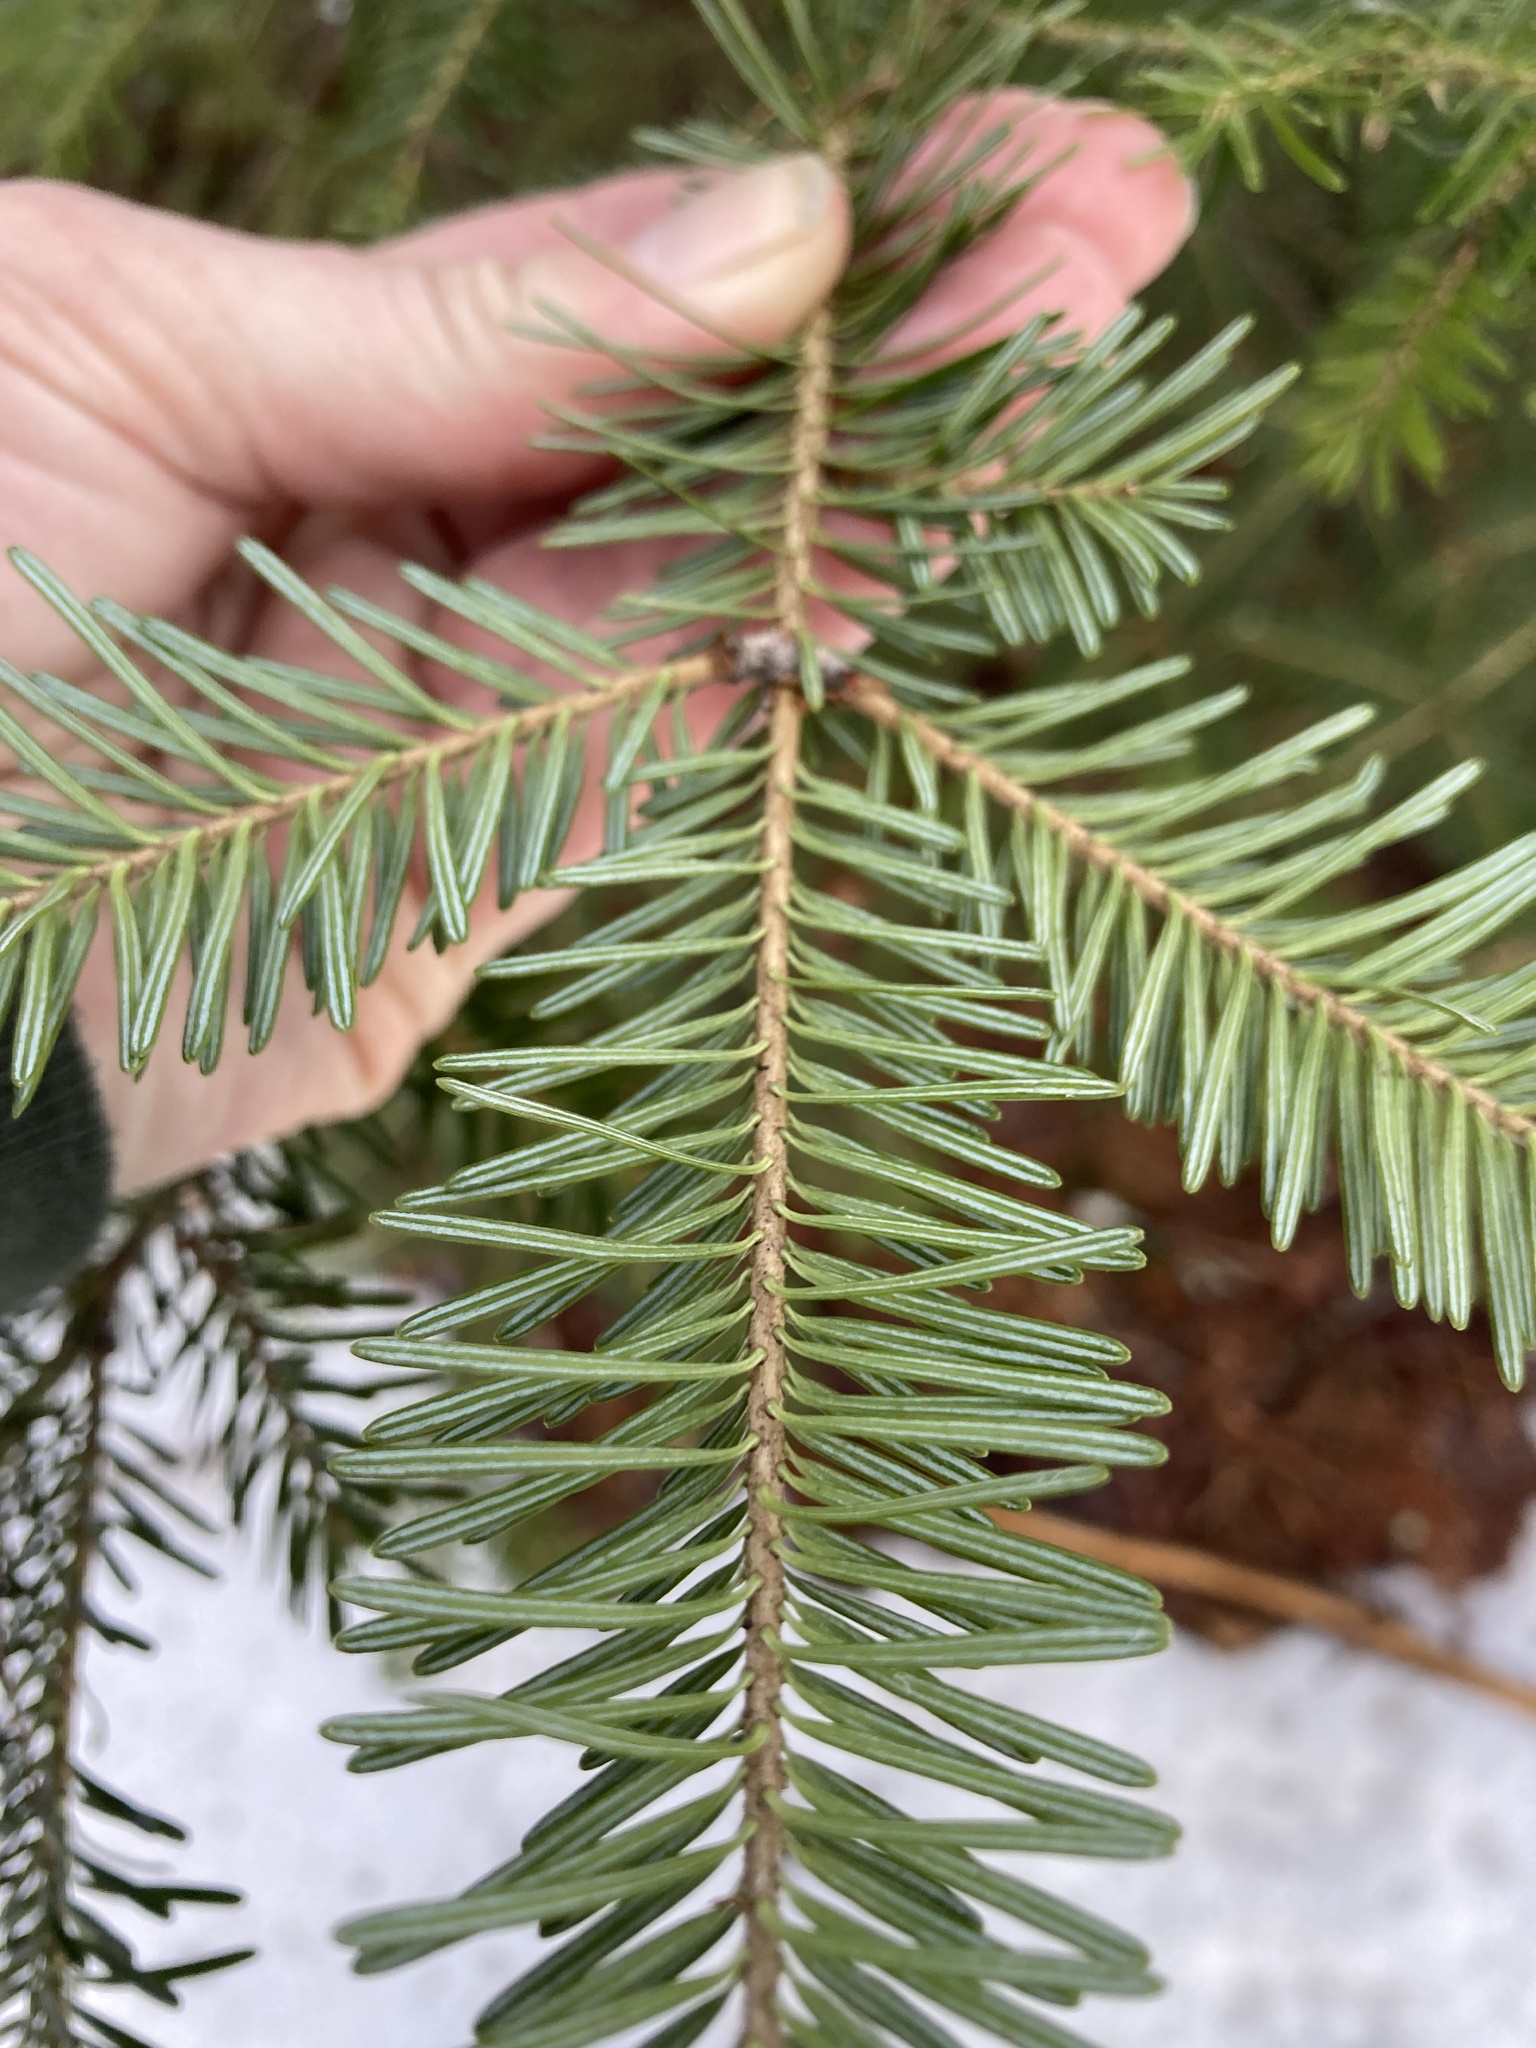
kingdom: Plantae
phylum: Tracheophyta
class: Pinopsida
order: Pinales
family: Pinaceae
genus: Abies
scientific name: Abies balsamea
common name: Balsam fir
